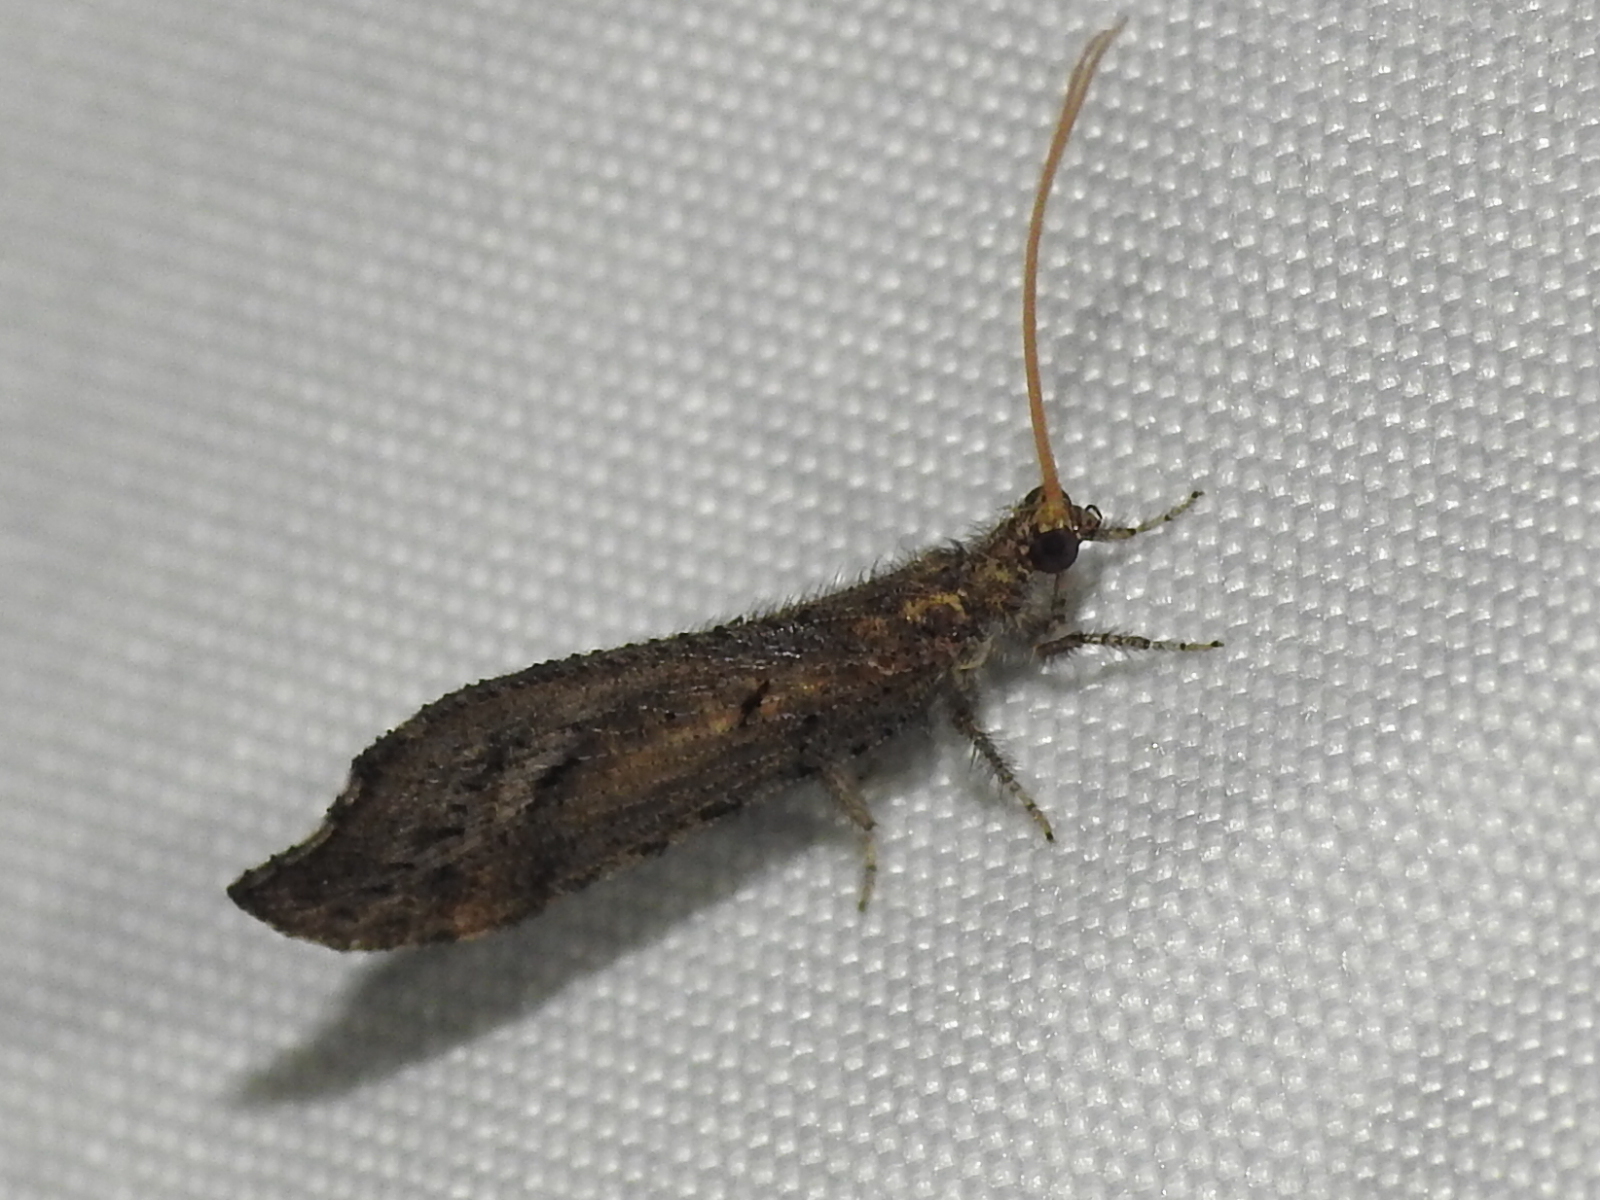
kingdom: Animalia
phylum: Arthropoda
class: Insecta
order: Neuroptera
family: Berothidae
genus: Lomamyia
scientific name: Lomamyia squamosa
